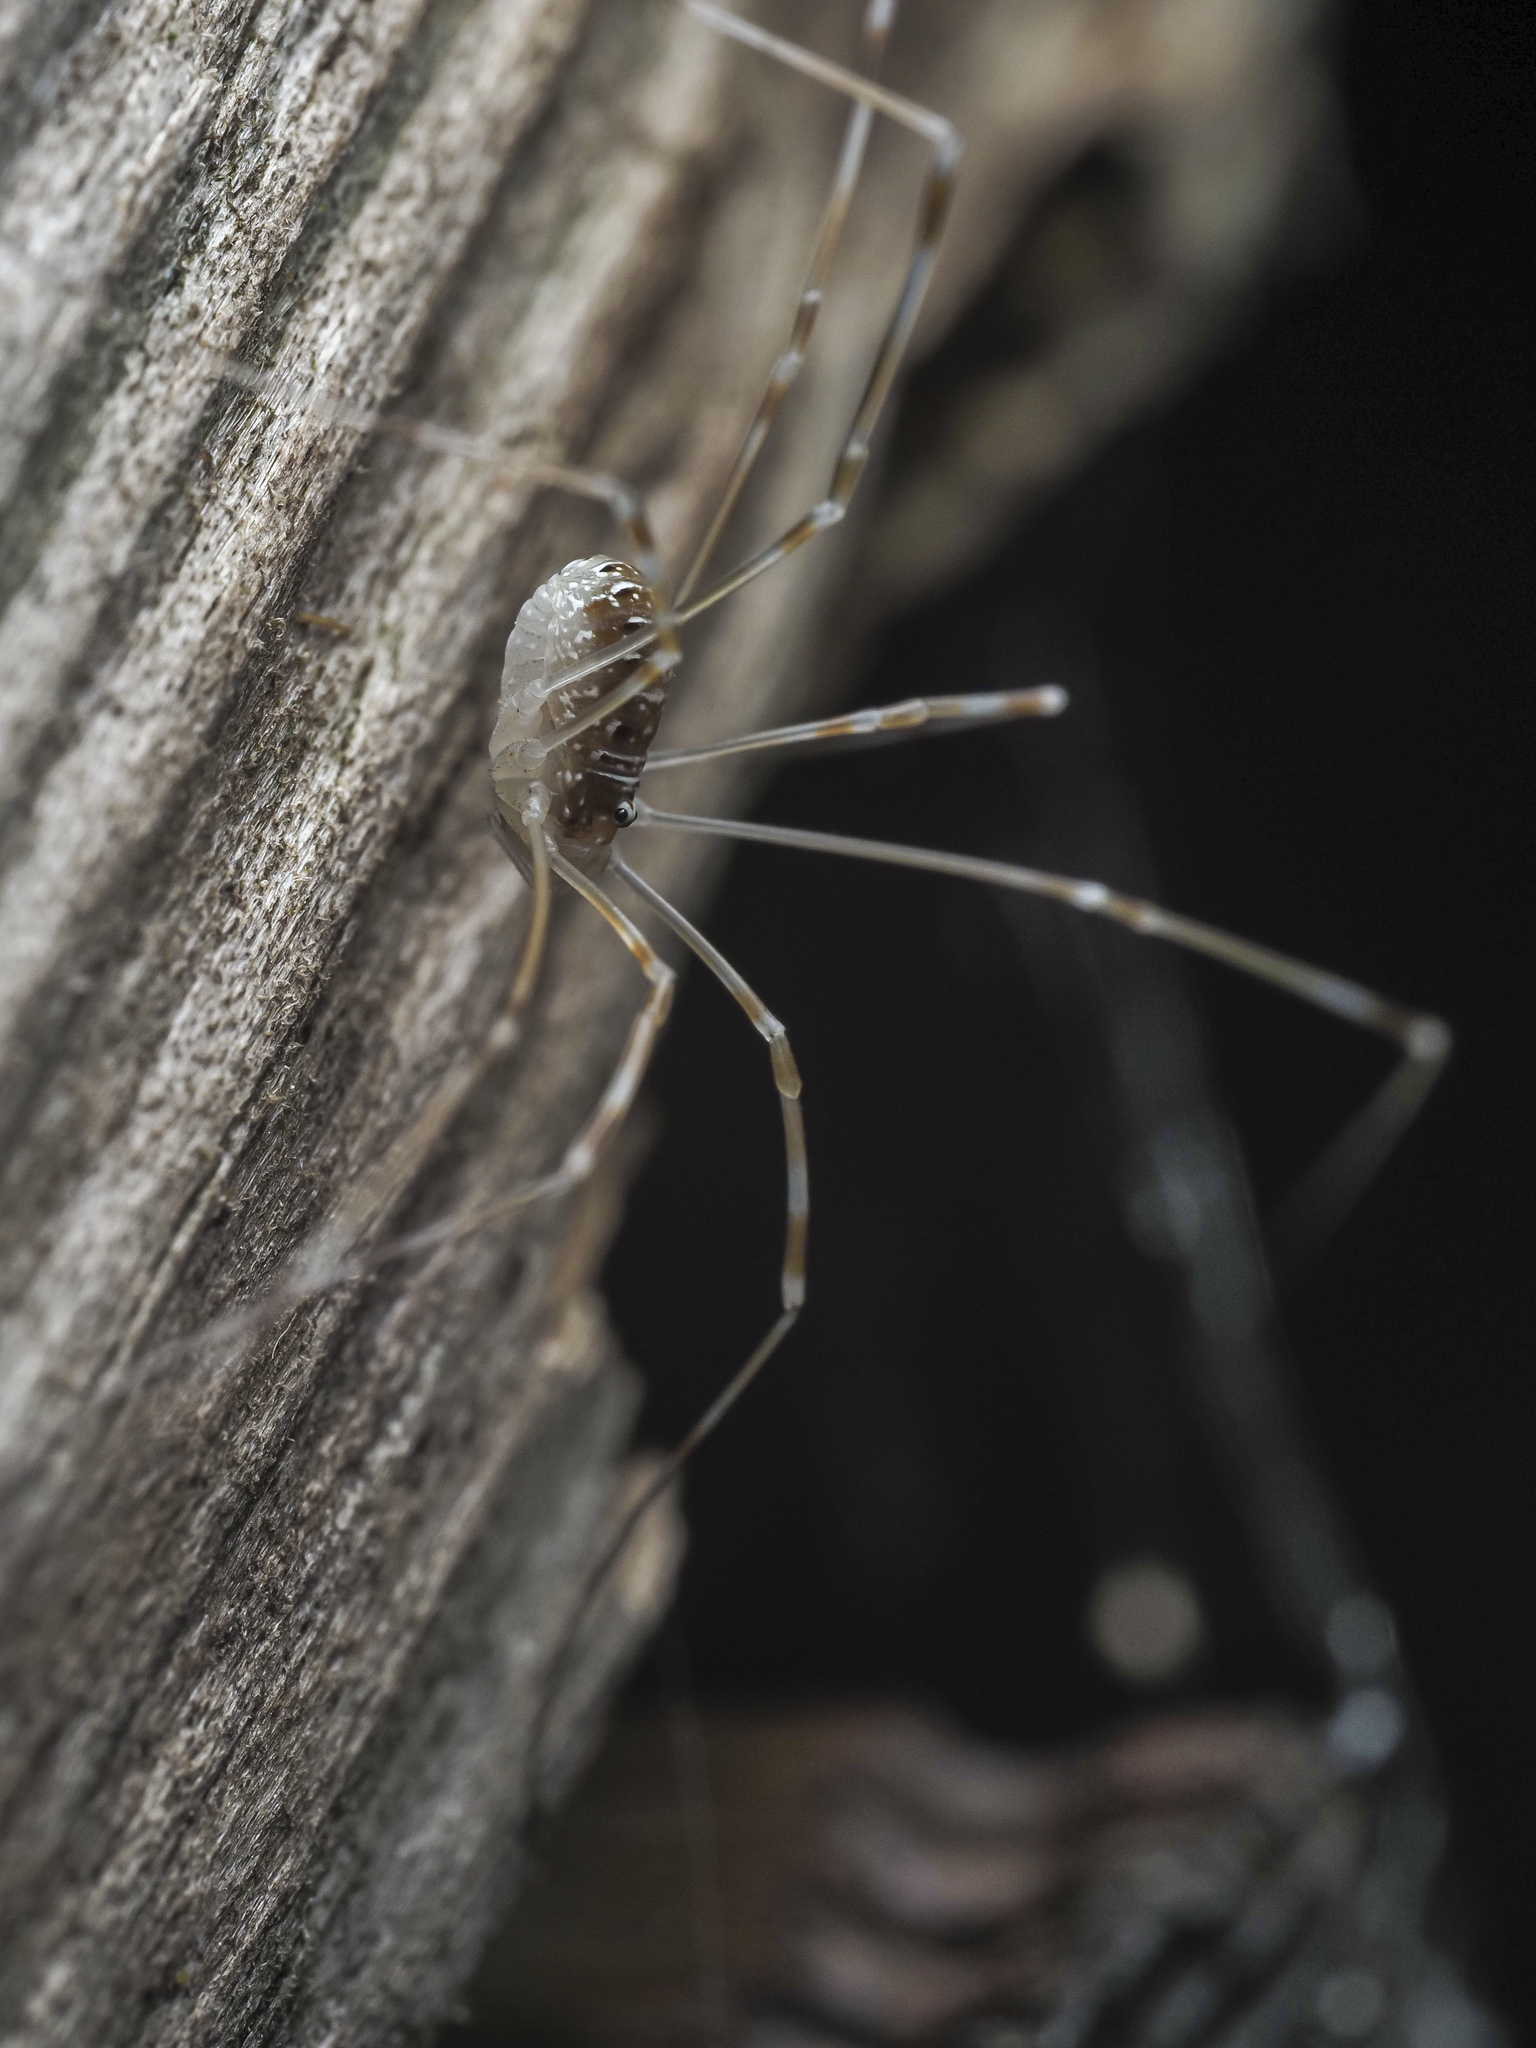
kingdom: Animalia
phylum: Arthropoda
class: Arachnida
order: Opiliones
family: Phalangiidae
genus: Opilio
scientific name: Opilio canestrinii
